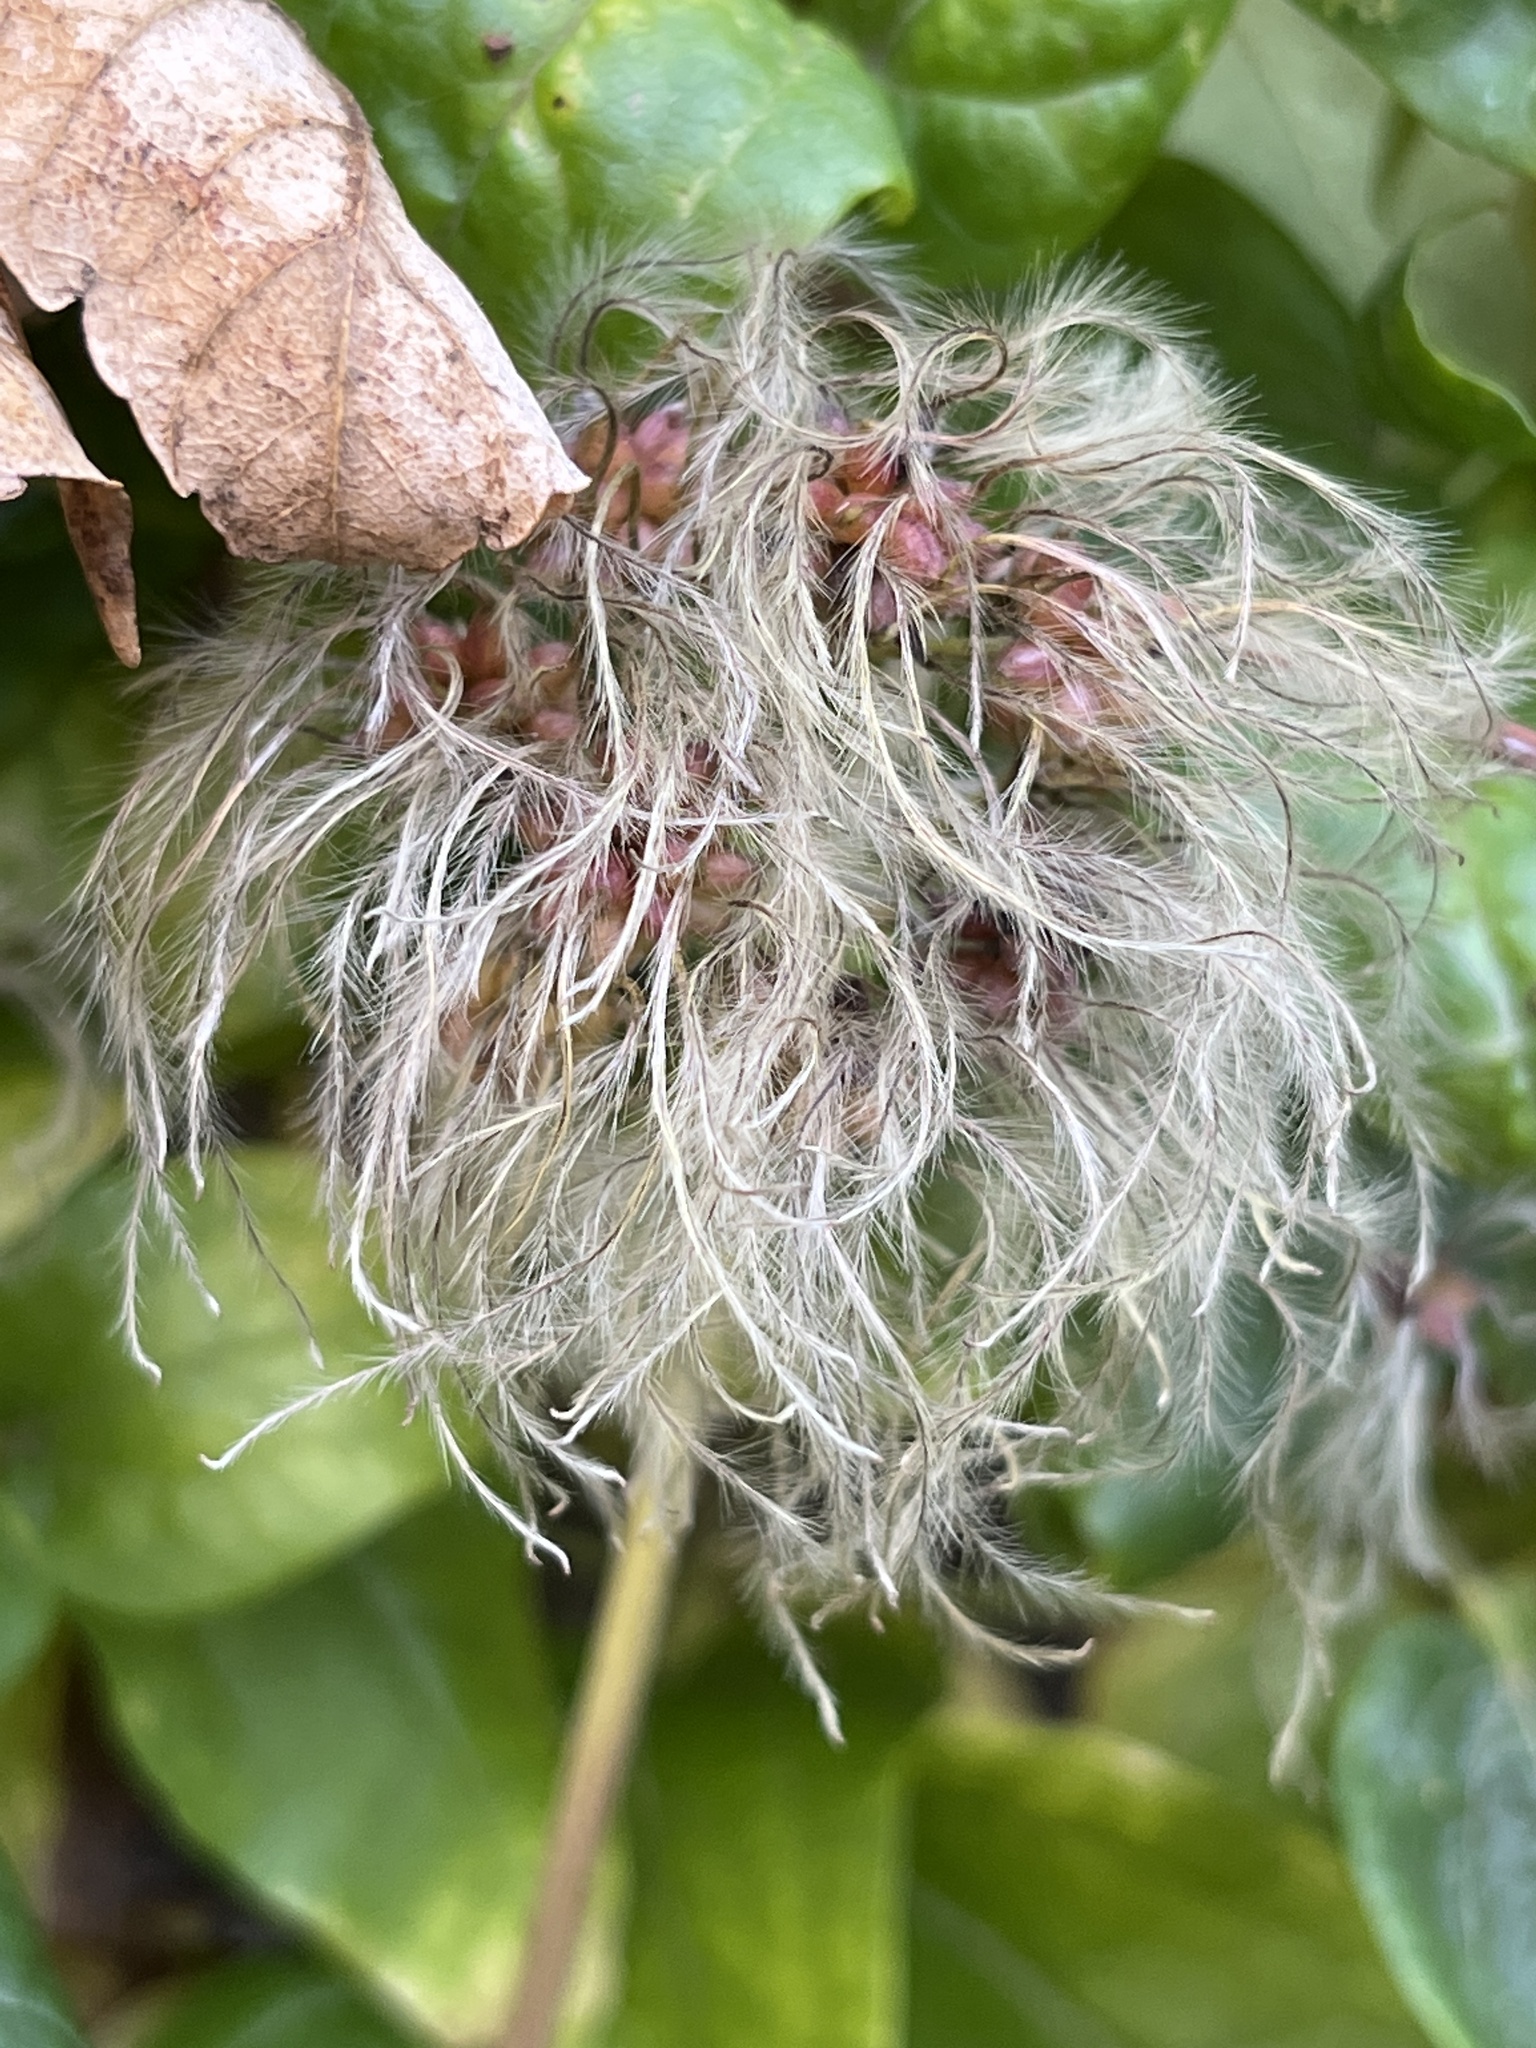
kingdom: Plantae
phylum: Tracheophyta
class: Magnoliopsida
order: Ranunculales
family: Ranunculaceae
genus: Clematis
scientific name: Clematis vitalba
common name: Evergreen clematis
